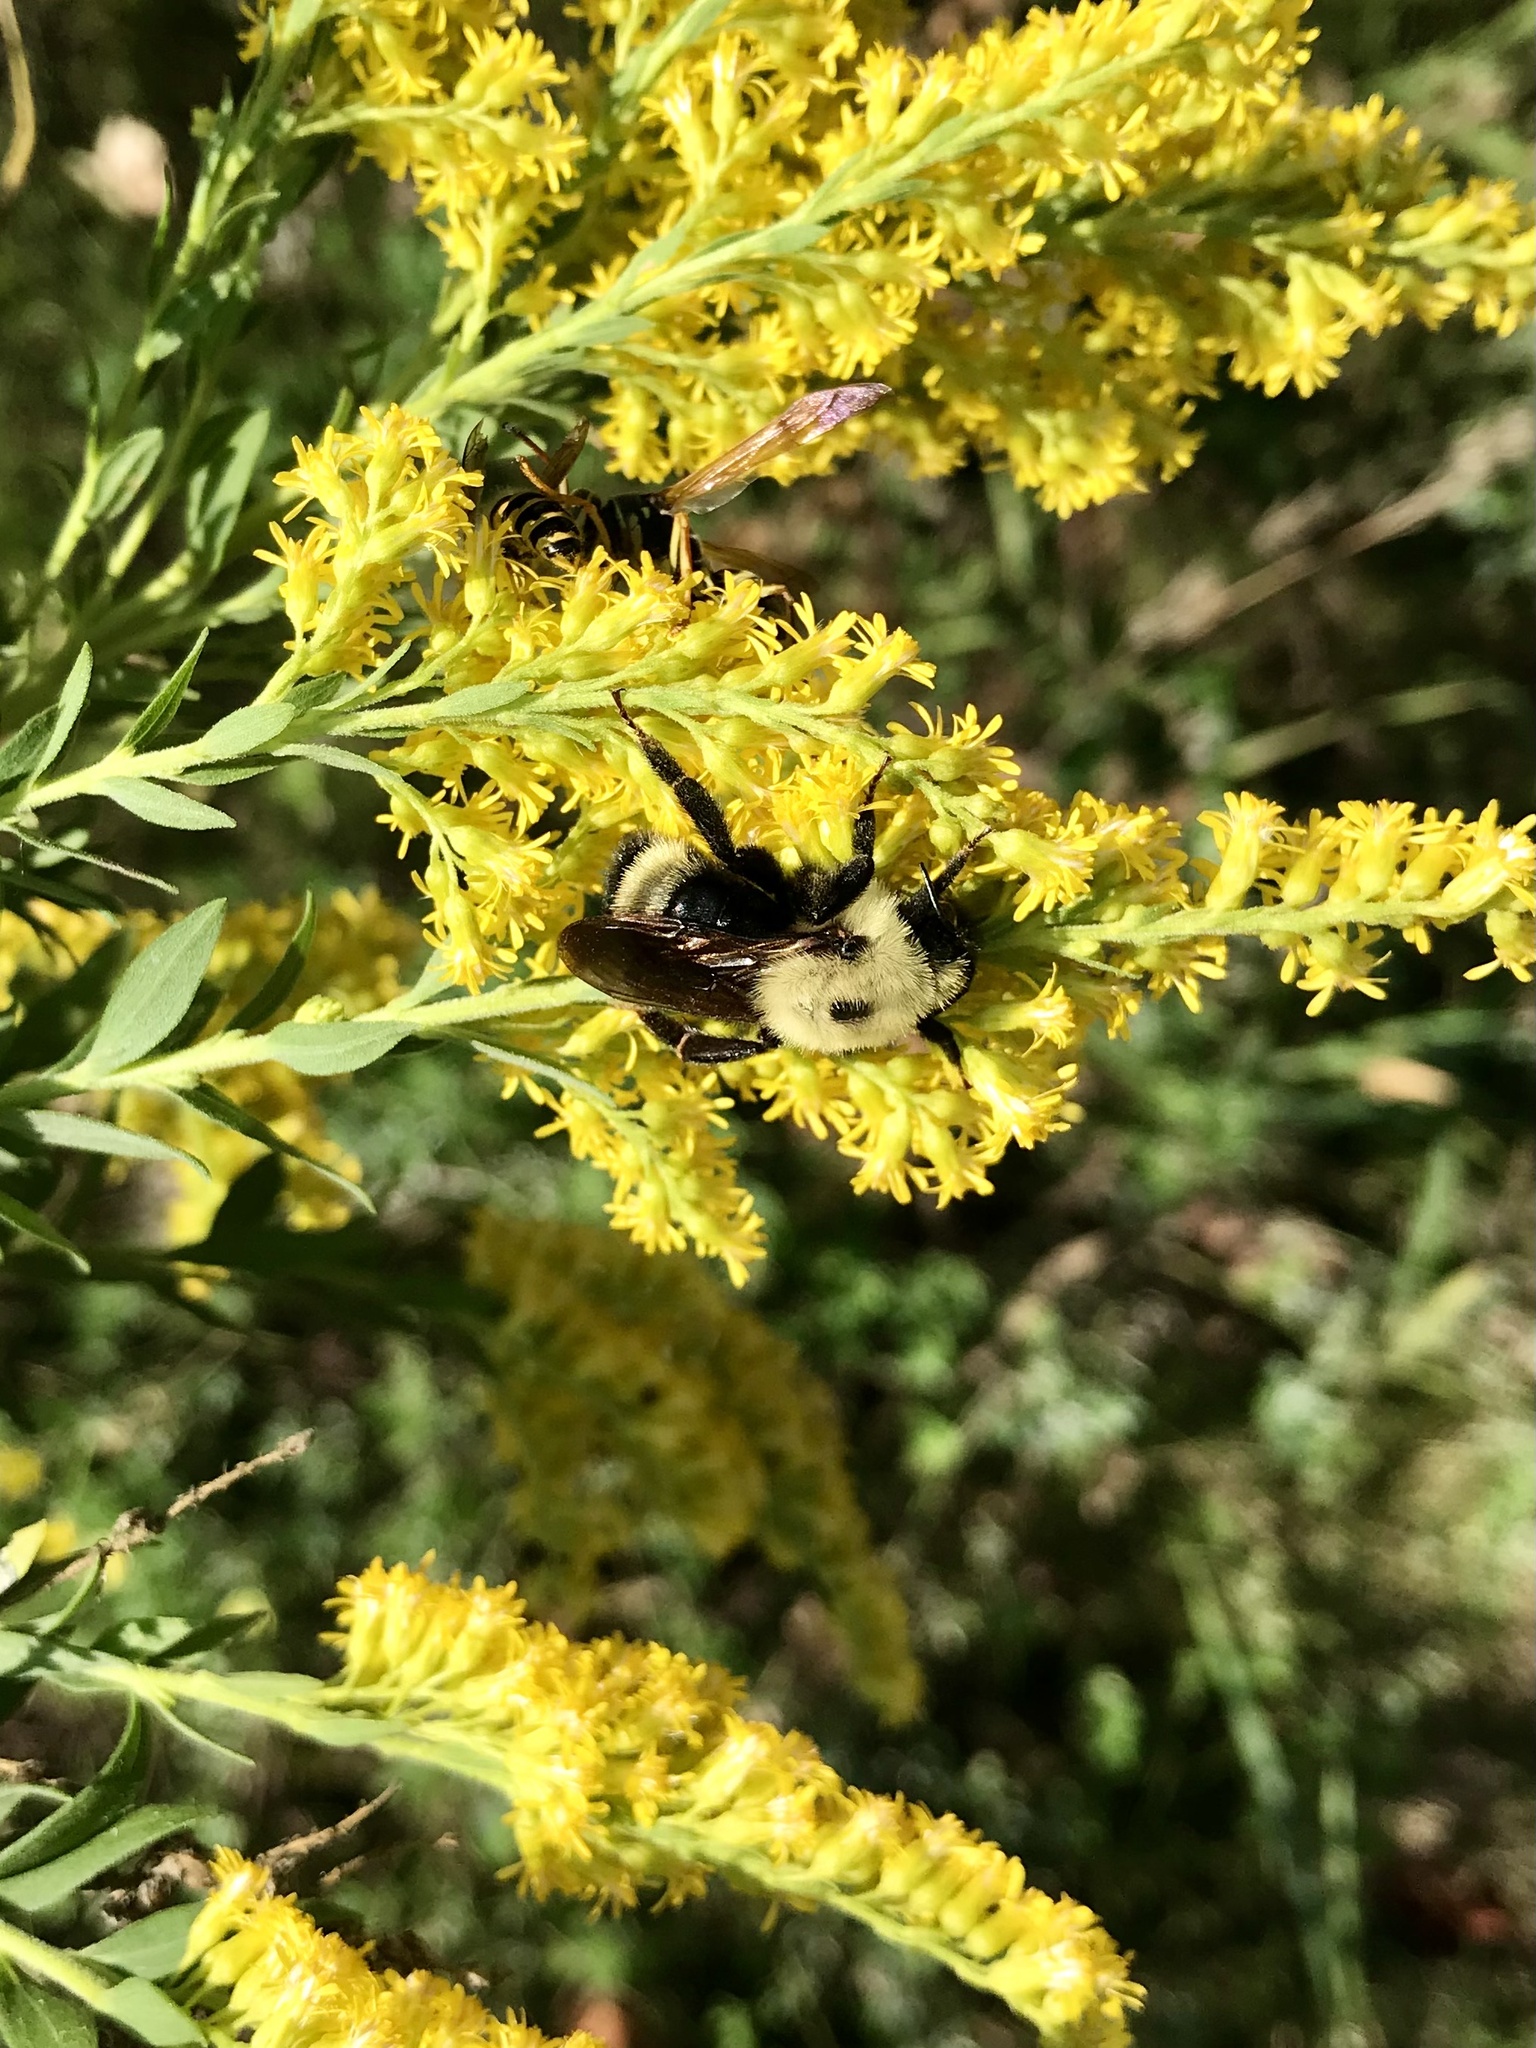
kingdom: Animalia
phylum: Arthropoda
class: Insecta
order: Hymenoptera
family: Apidae
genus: Bombus
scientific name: Bombus citrinus
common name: Lemon cuckoo bumble bee
